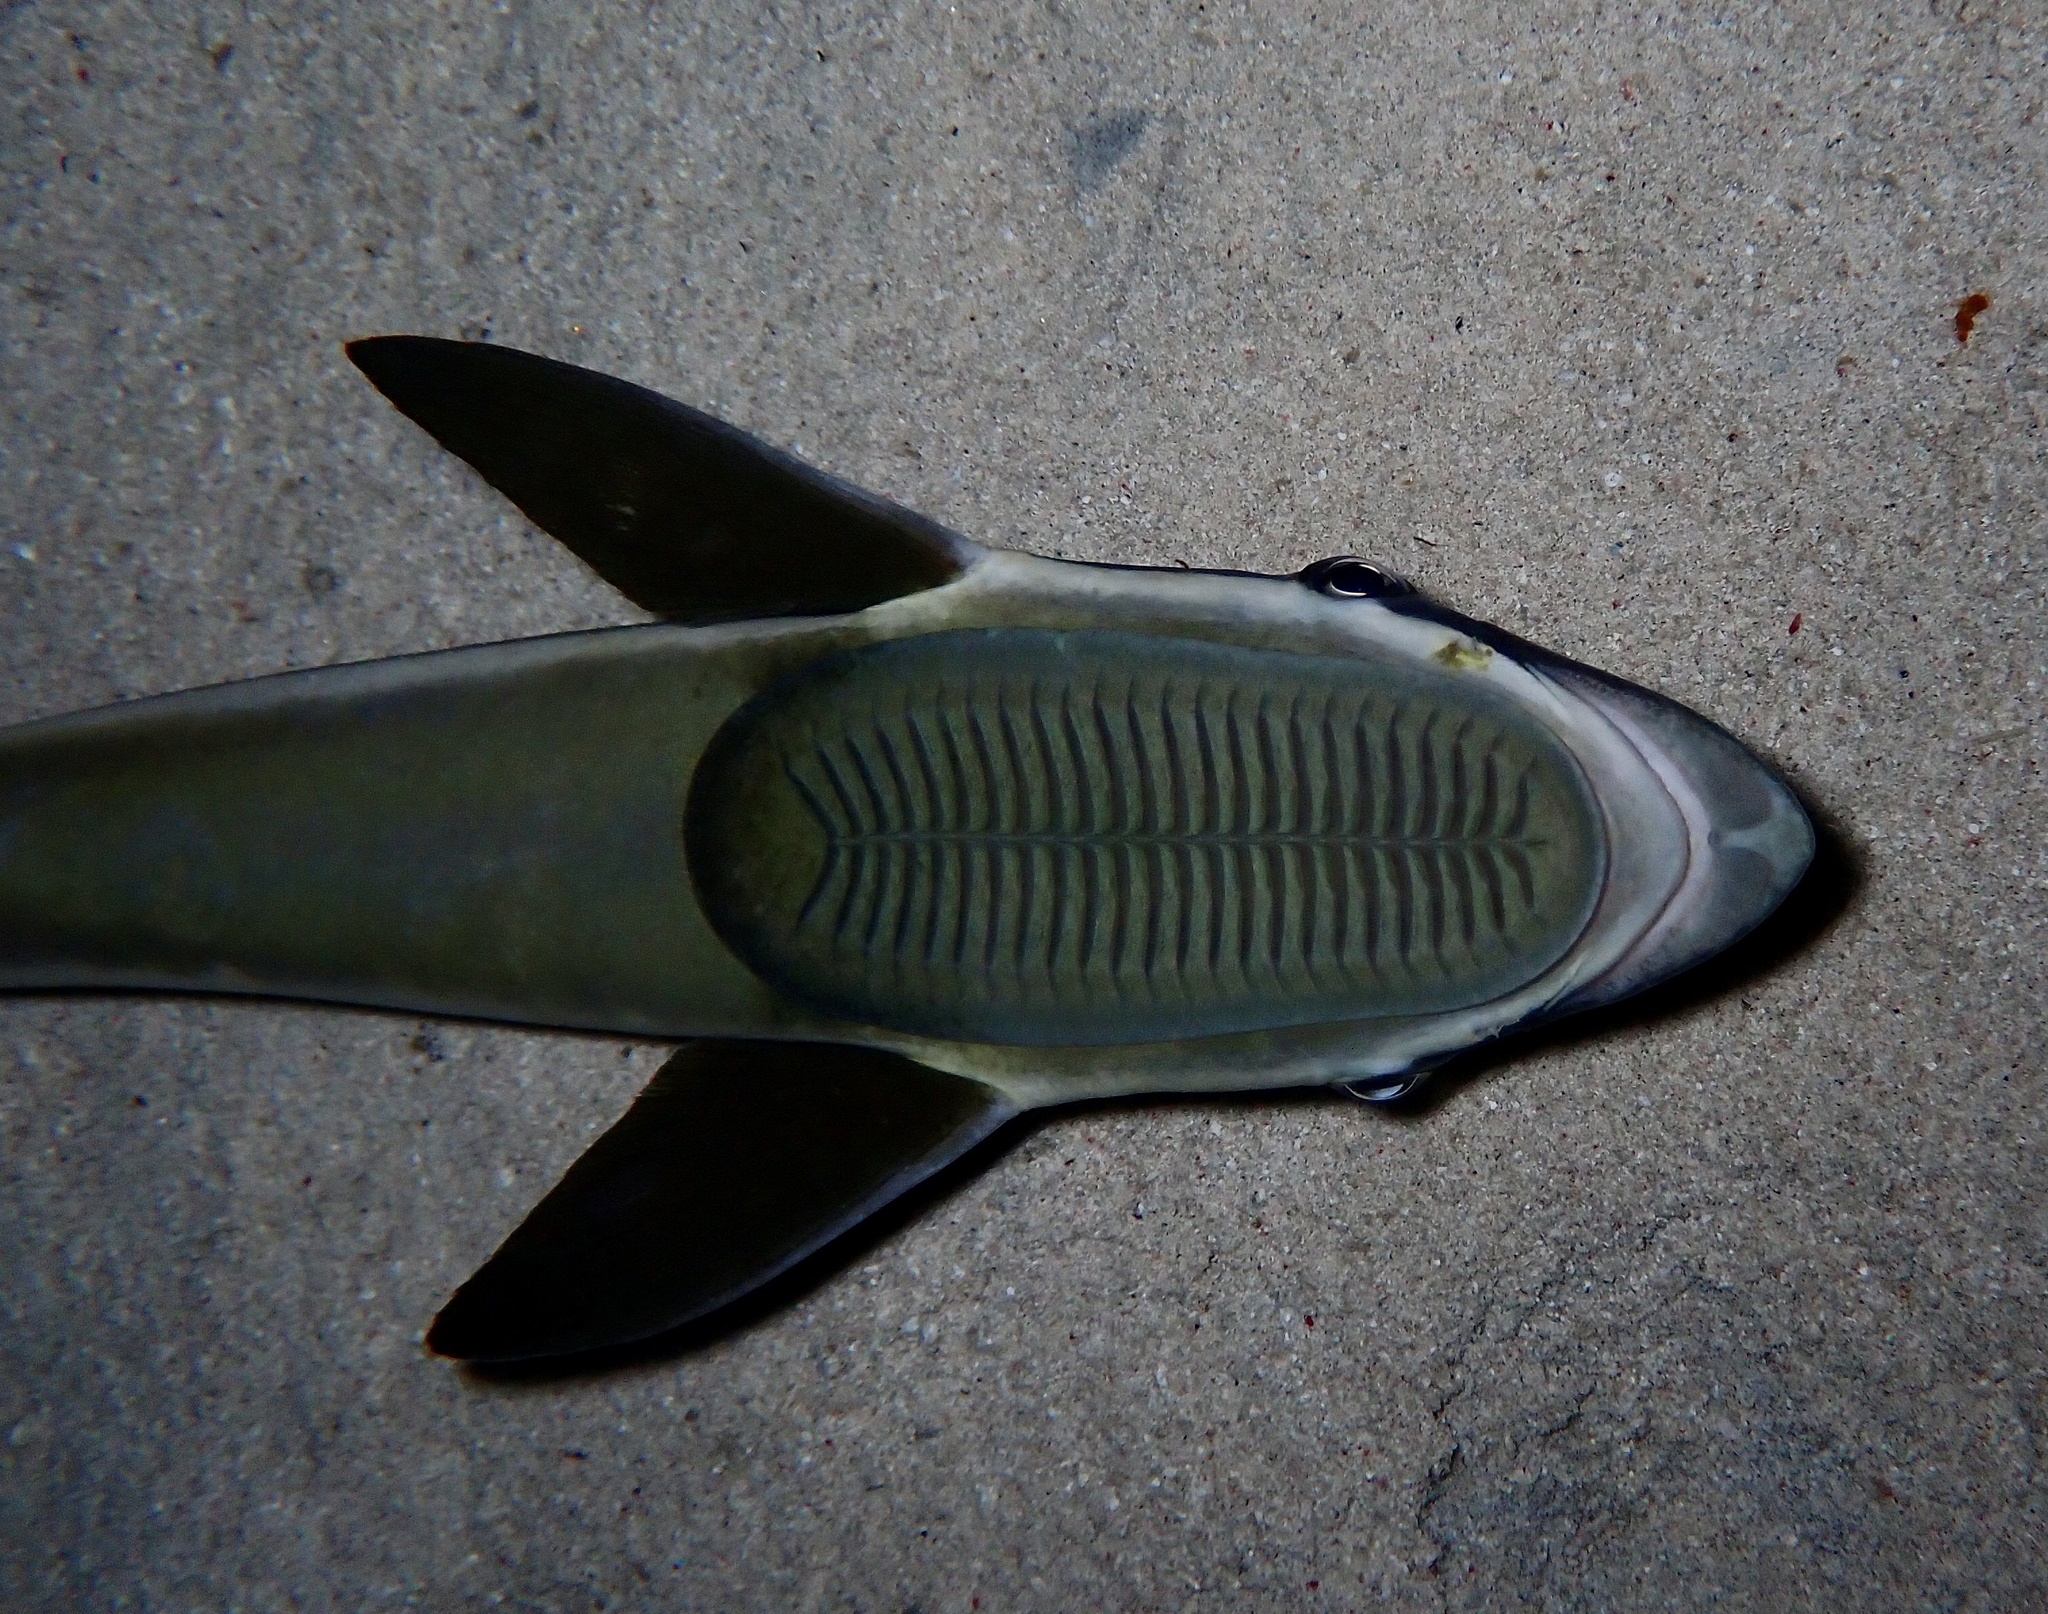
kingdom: Animalia
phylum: Chordata
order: Perciformes
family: Echeneidae
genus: Echeneis
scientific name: Echeneis naucrates
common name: Sharksucker
